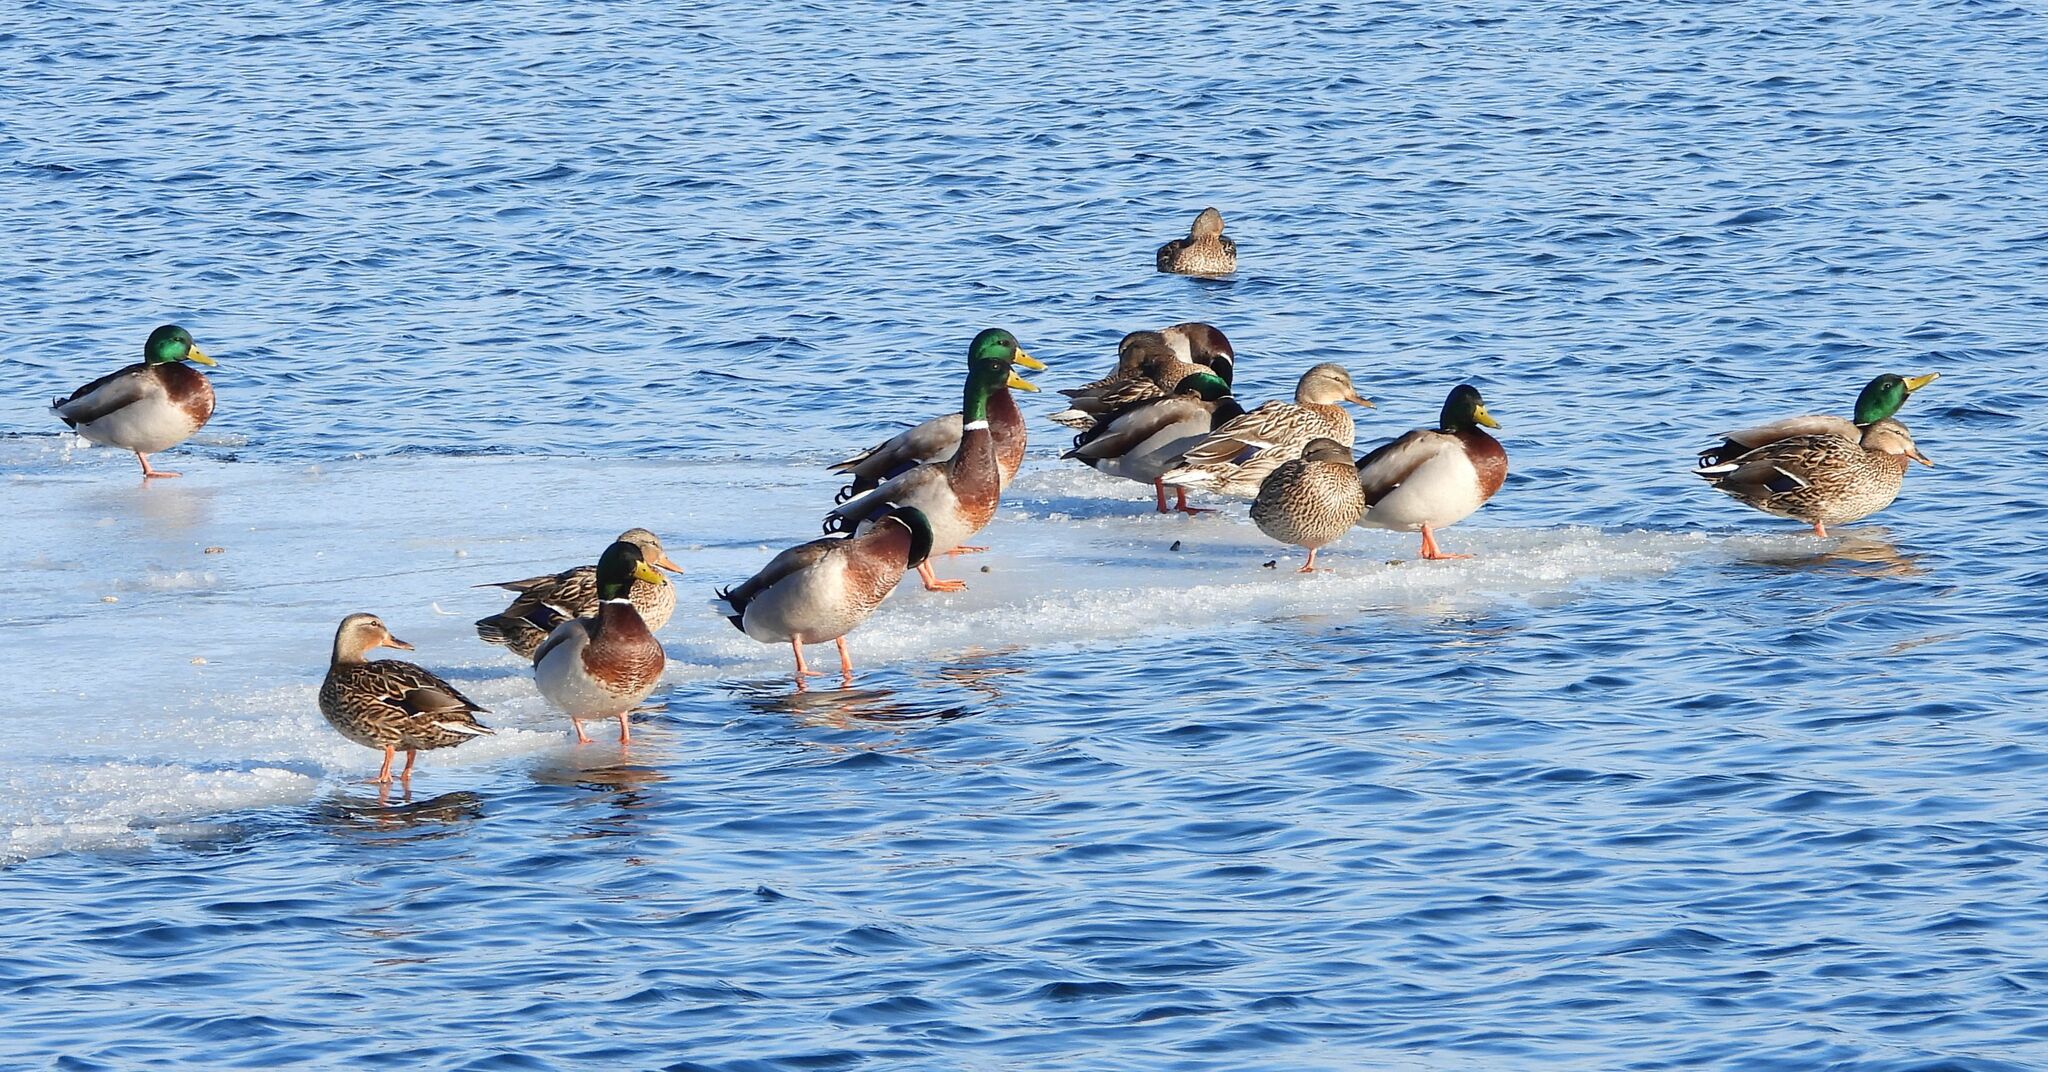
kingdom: Animalia
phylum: Chordata
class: Aves
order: Anseriformes
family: Anatidae
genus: Anas
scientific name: Anas platyrhynchos
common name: Mallard
